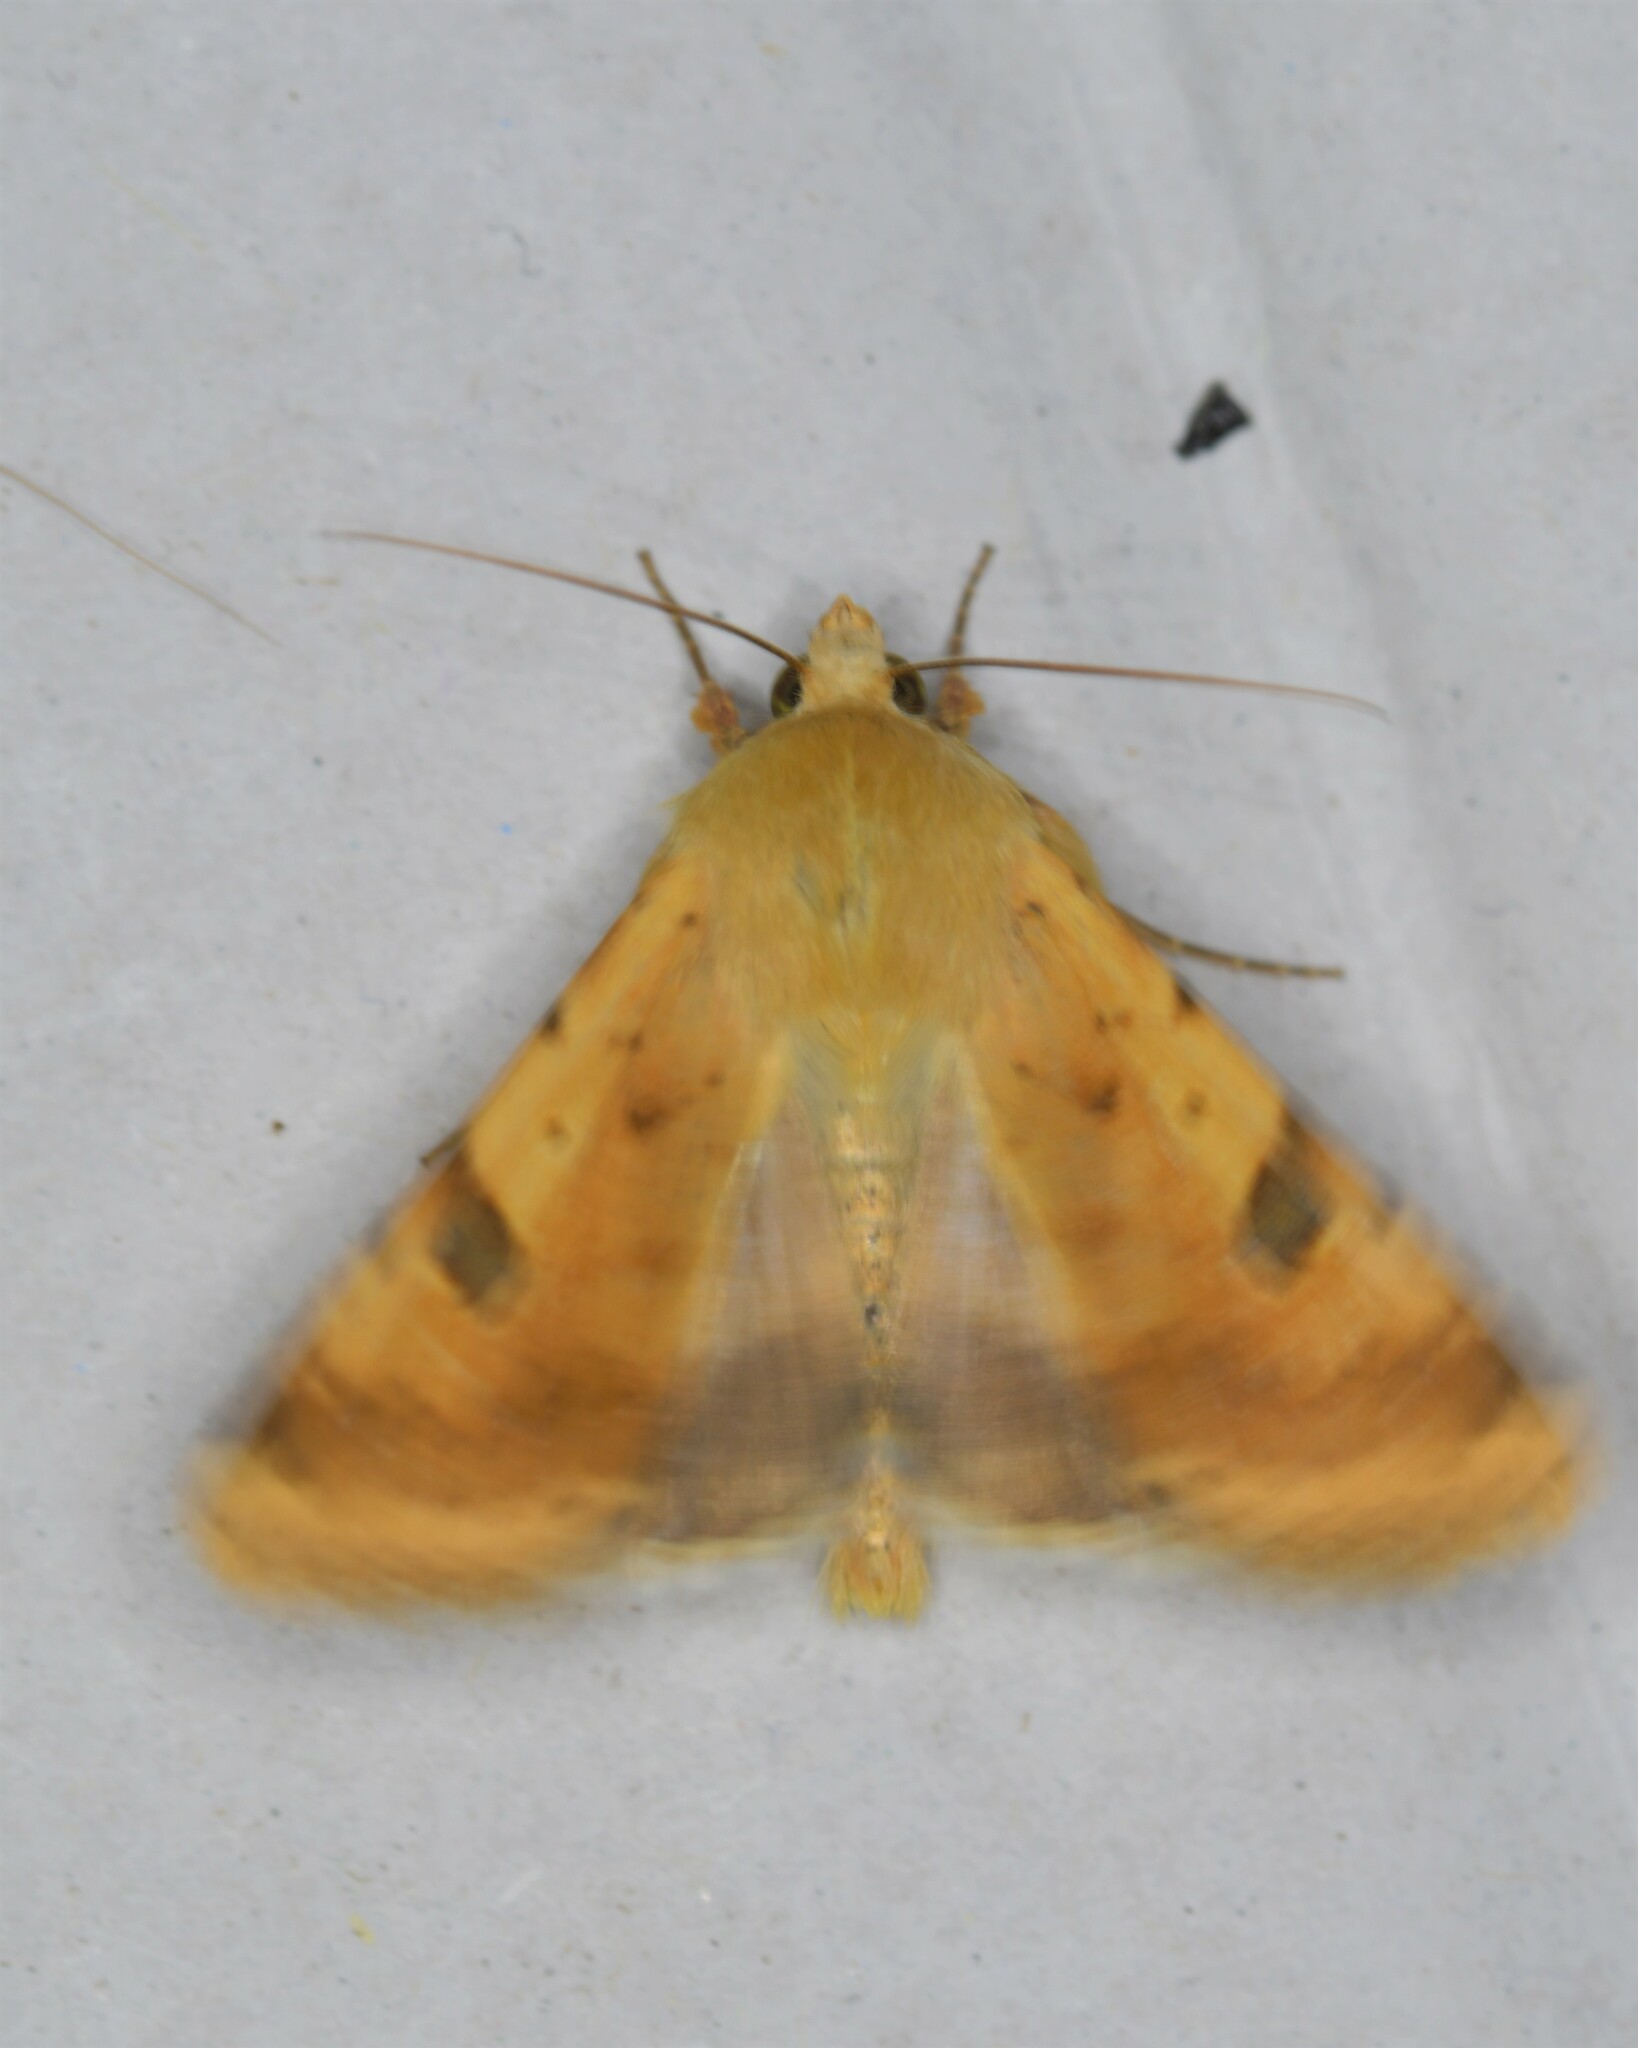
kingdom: Animalia
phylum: Arthropoda
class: Insecta
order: Lepidoptera
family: Noctuidae
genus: Heliothis
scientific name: Heliothis peltigera
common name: Bordered straw
